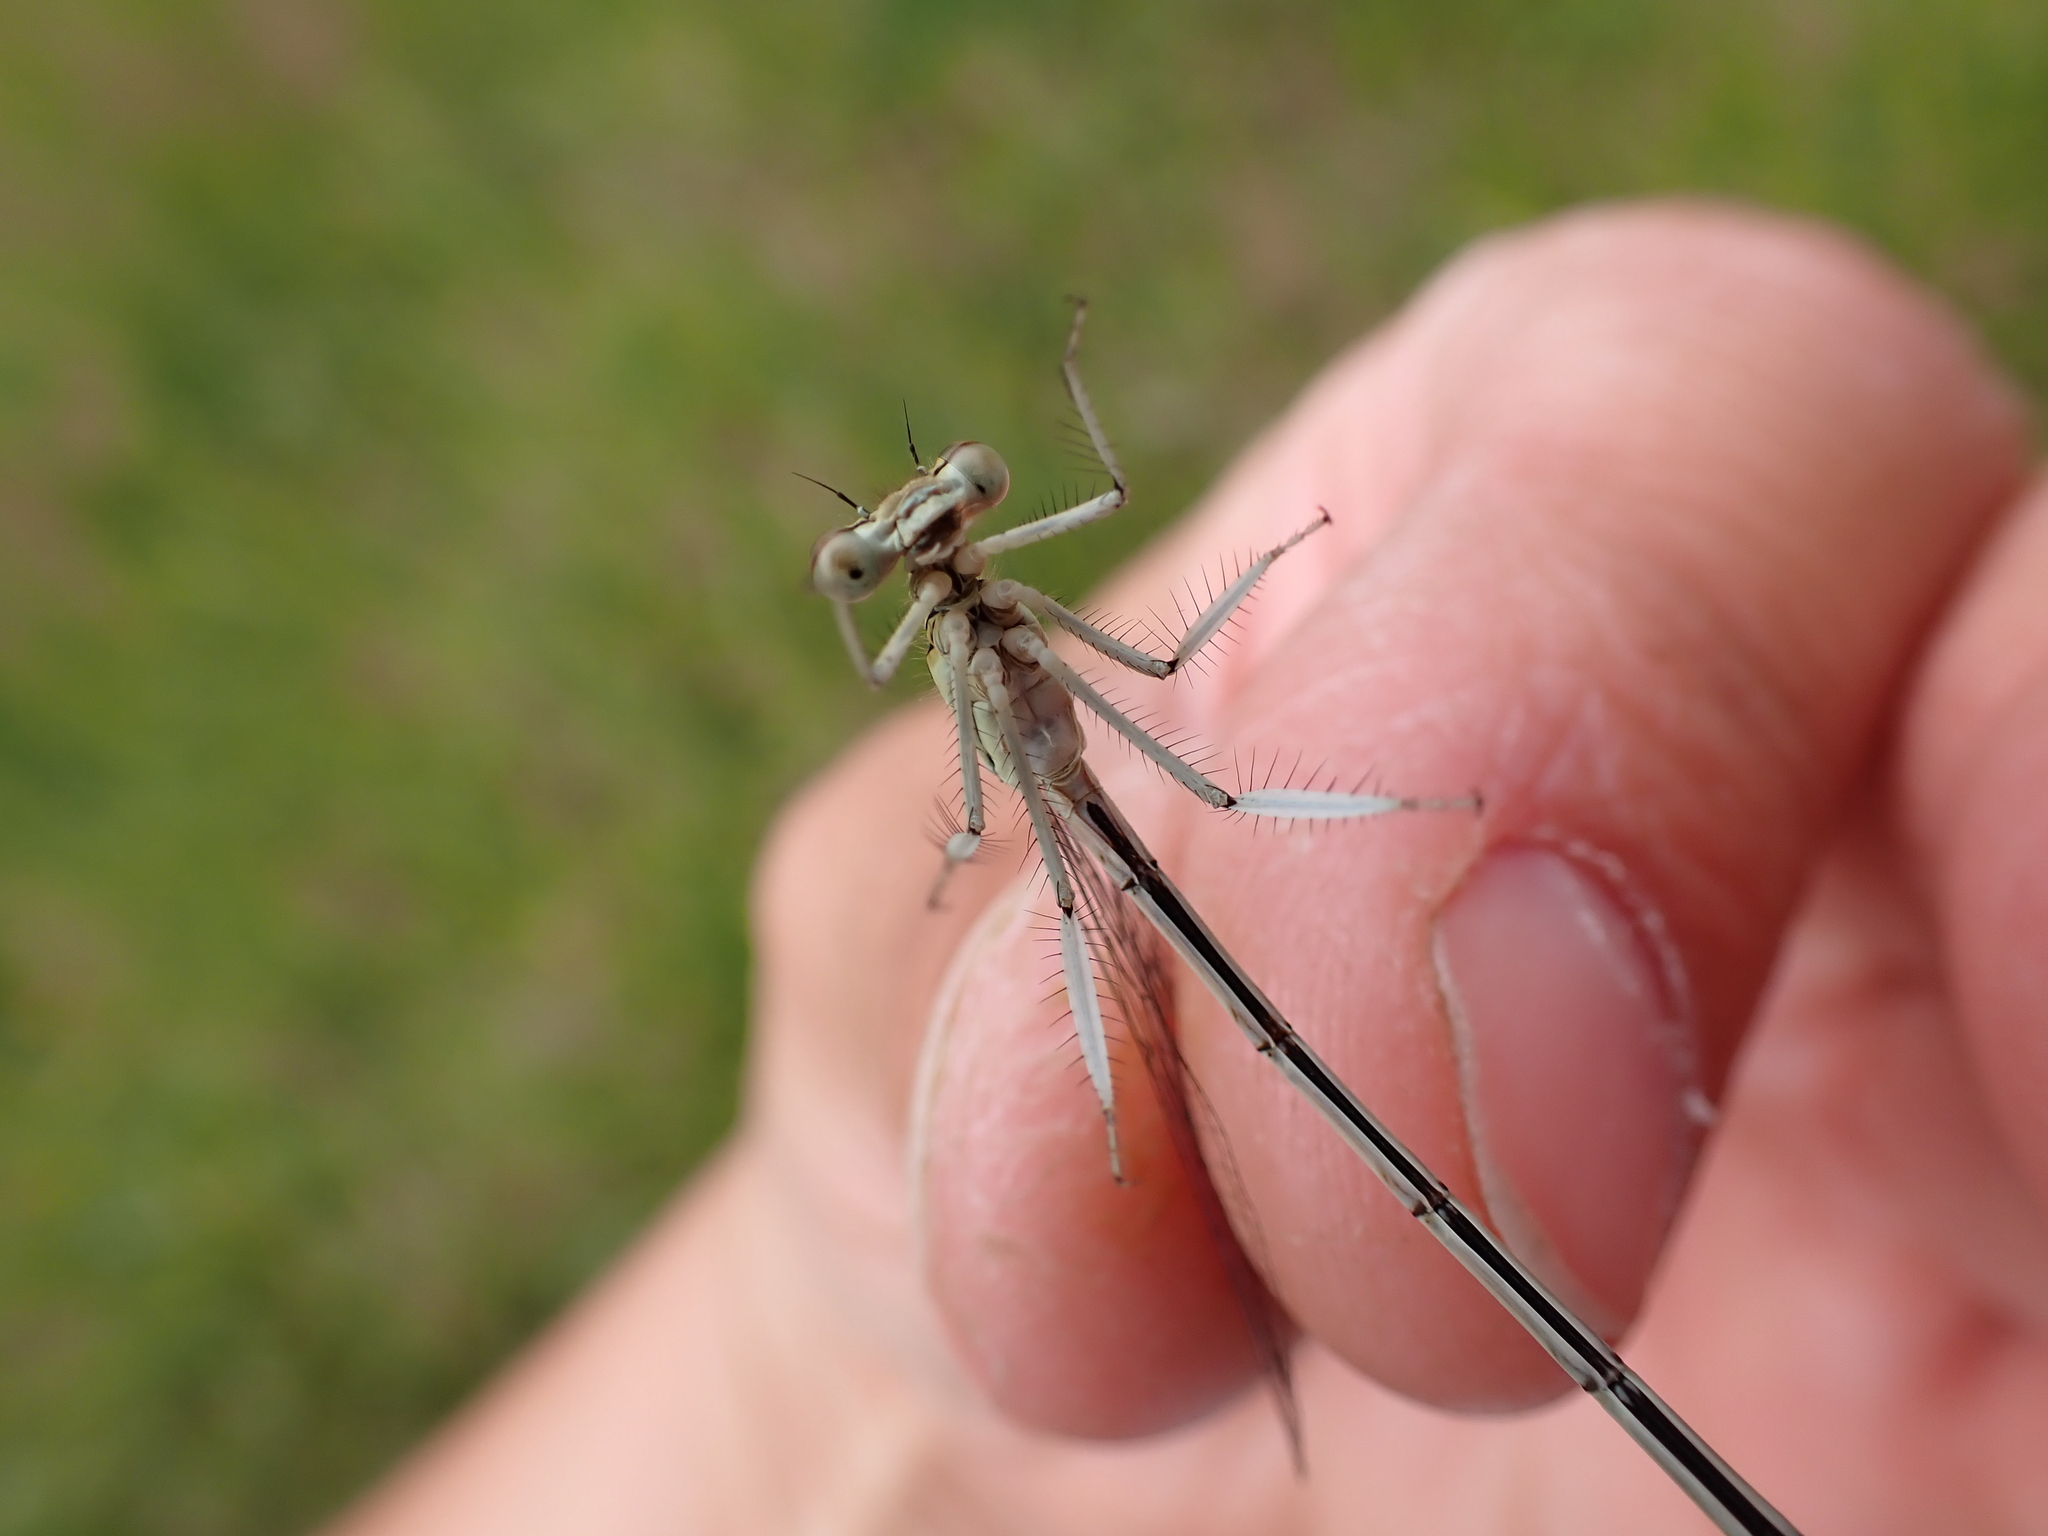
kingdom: Animalia
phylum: Arthropoda
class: Insecta
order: Odonata
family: Platycnemididae
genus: Platycnemis
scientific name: Platycnemis pennipes
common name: White-legged damselfly
